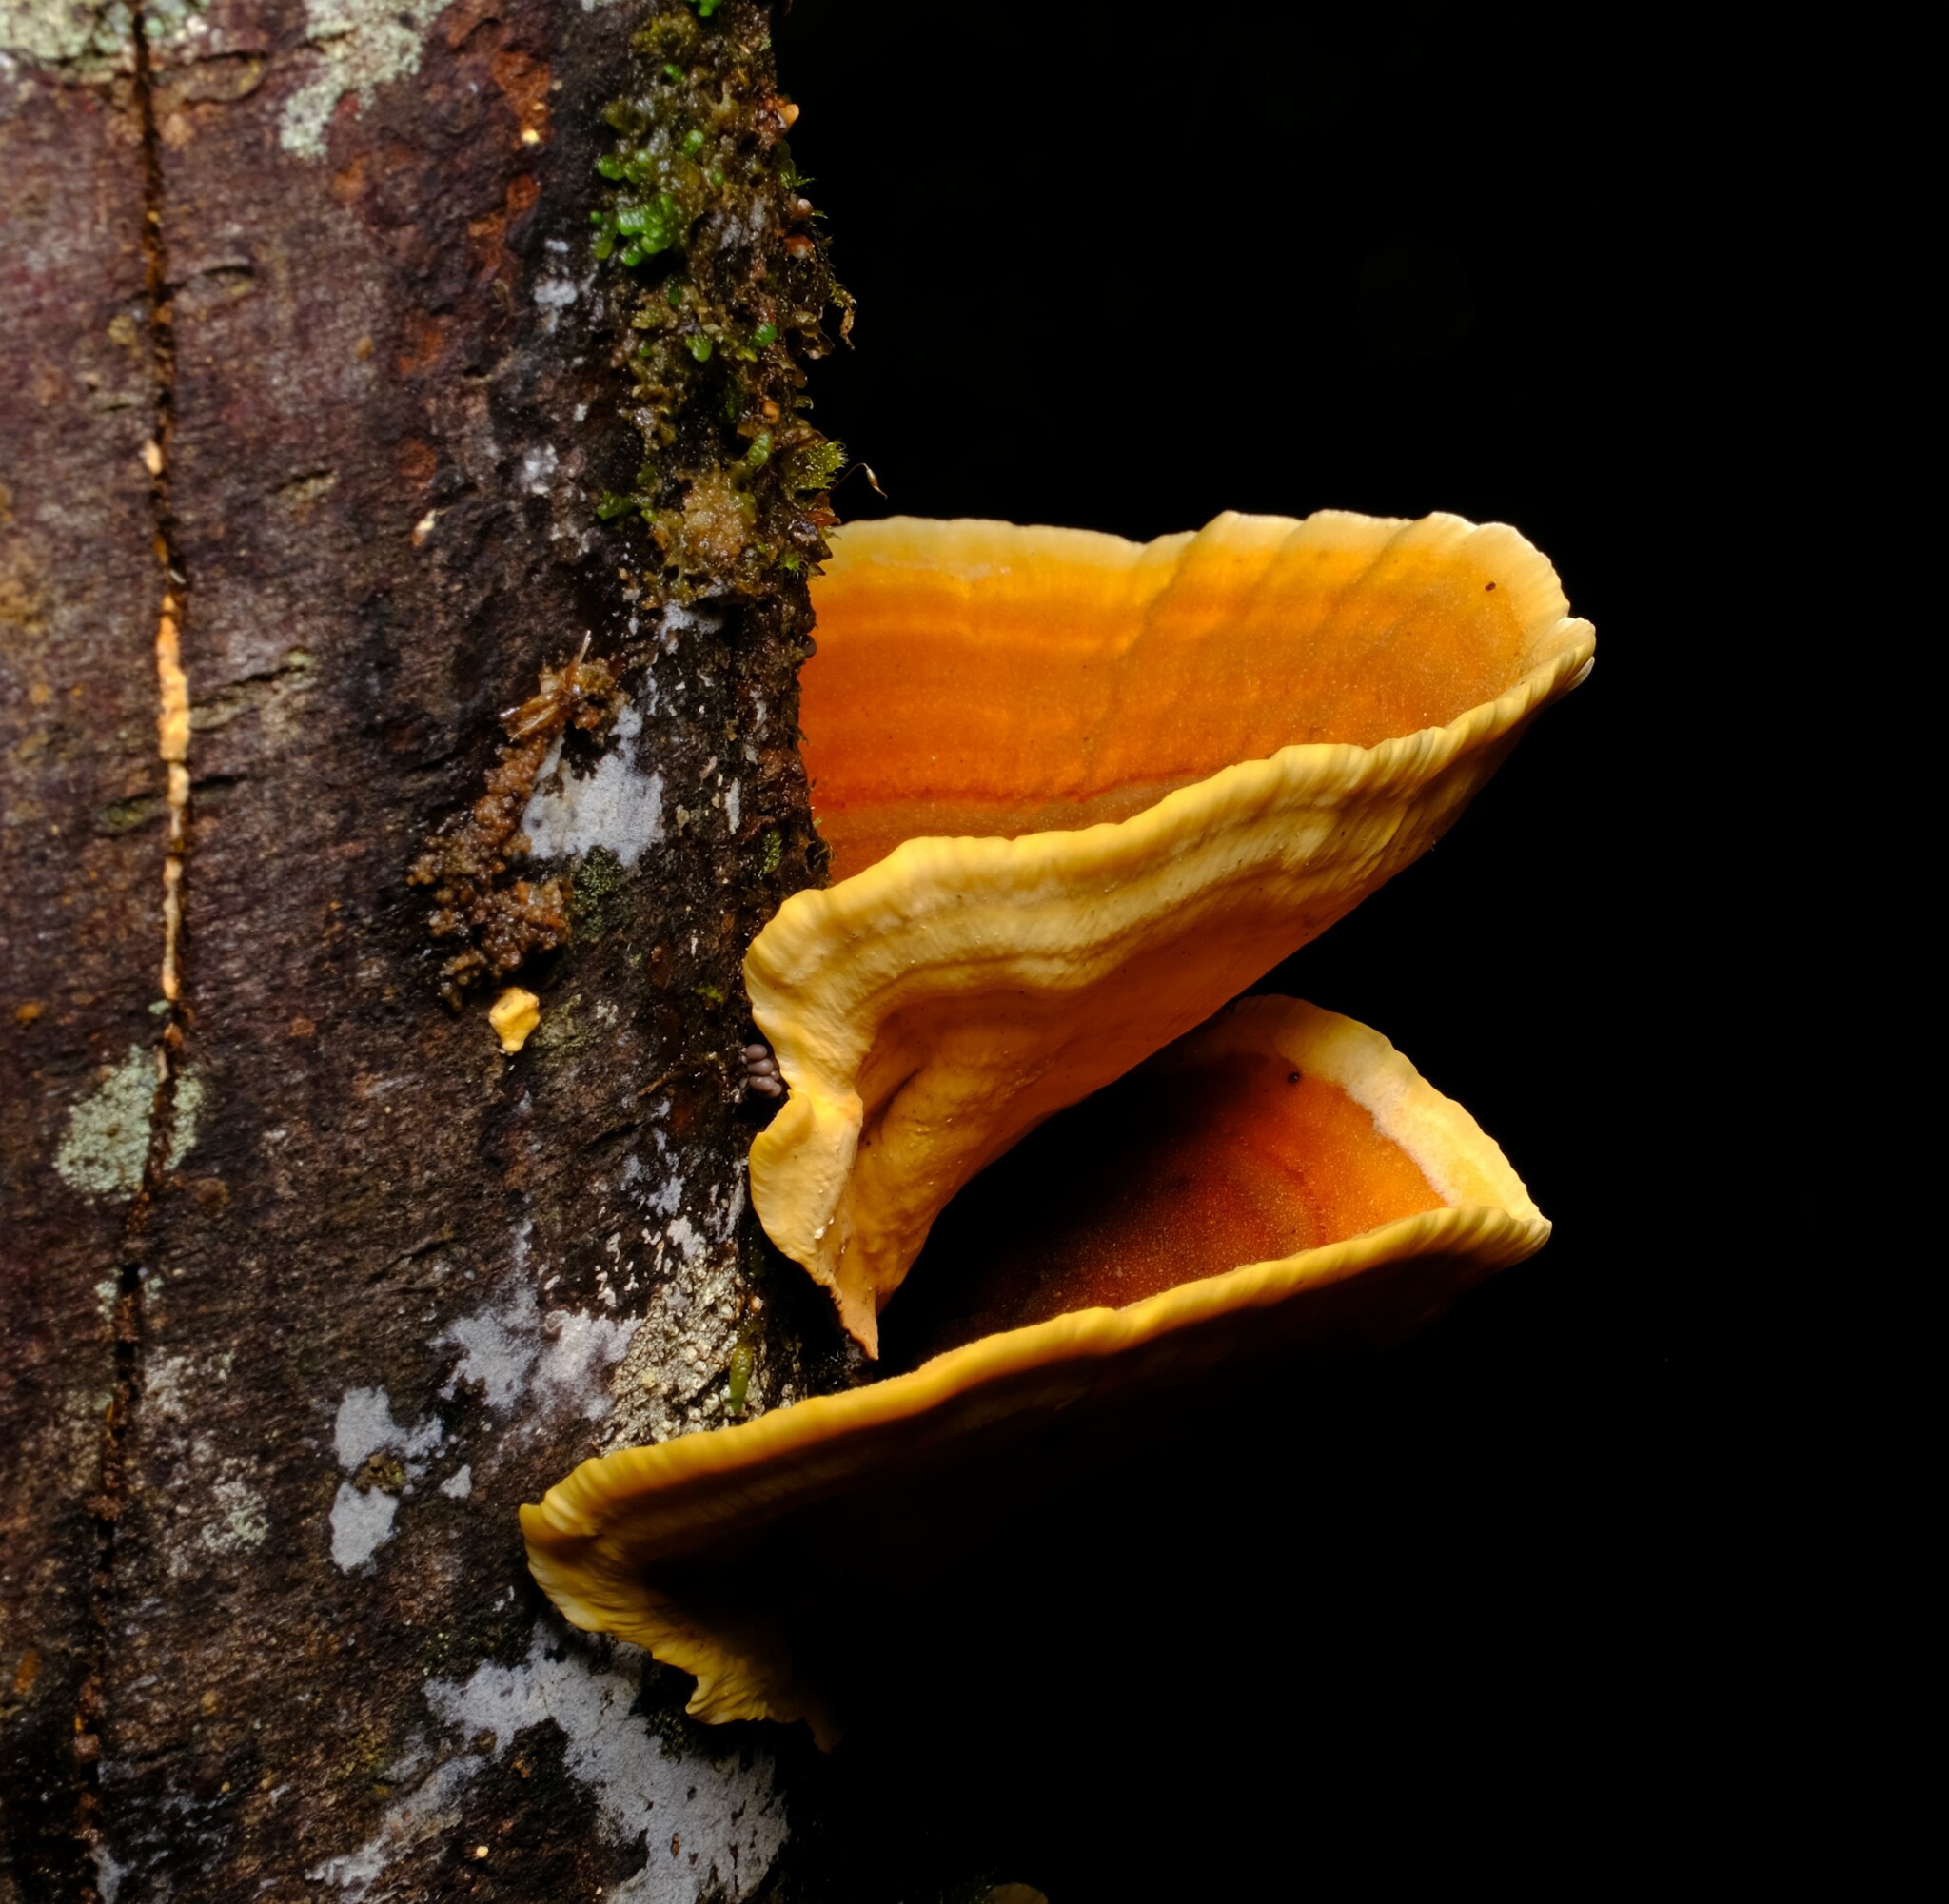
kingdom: Fungi
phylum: Basidiomycota
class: Agaricomycetes
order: Russulales
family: Stereaceae
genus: Stereum
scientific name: Stereum ostrea
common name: False turkeytail
